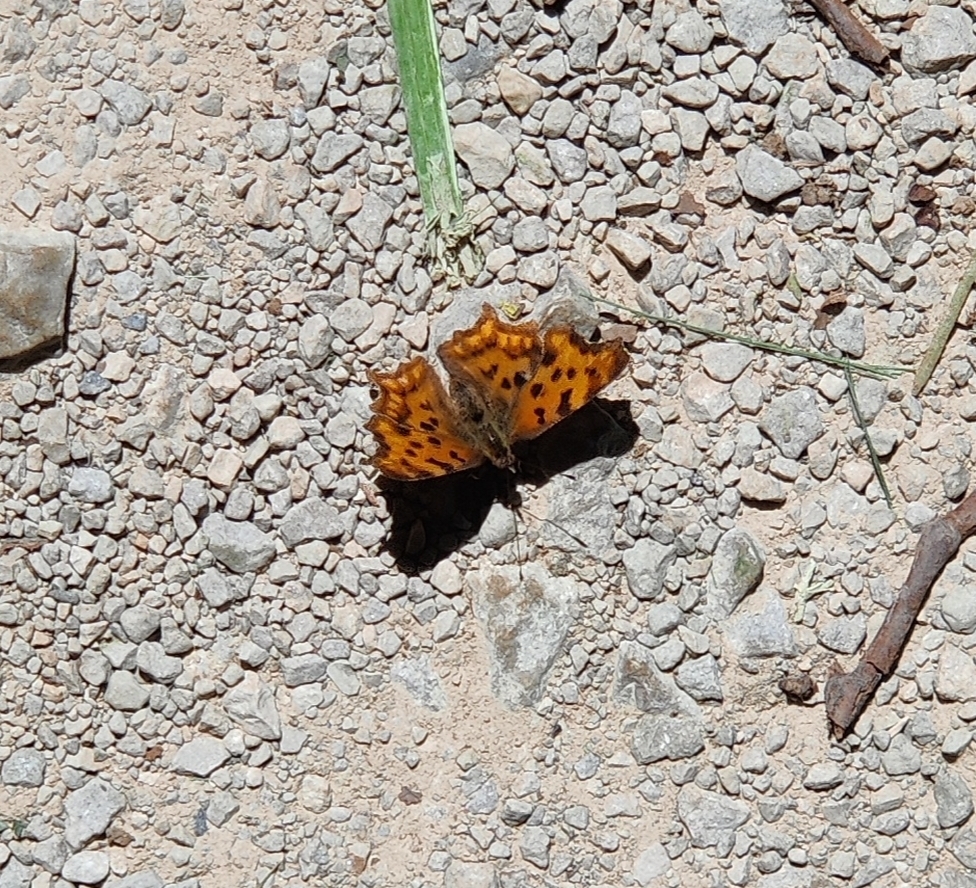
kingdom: Animalia
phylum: Arthropoda
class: Insecta
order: Lepidoptera
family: Nymphalidae
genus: Polygonia
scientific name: Polygonia c-album
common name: Comma
